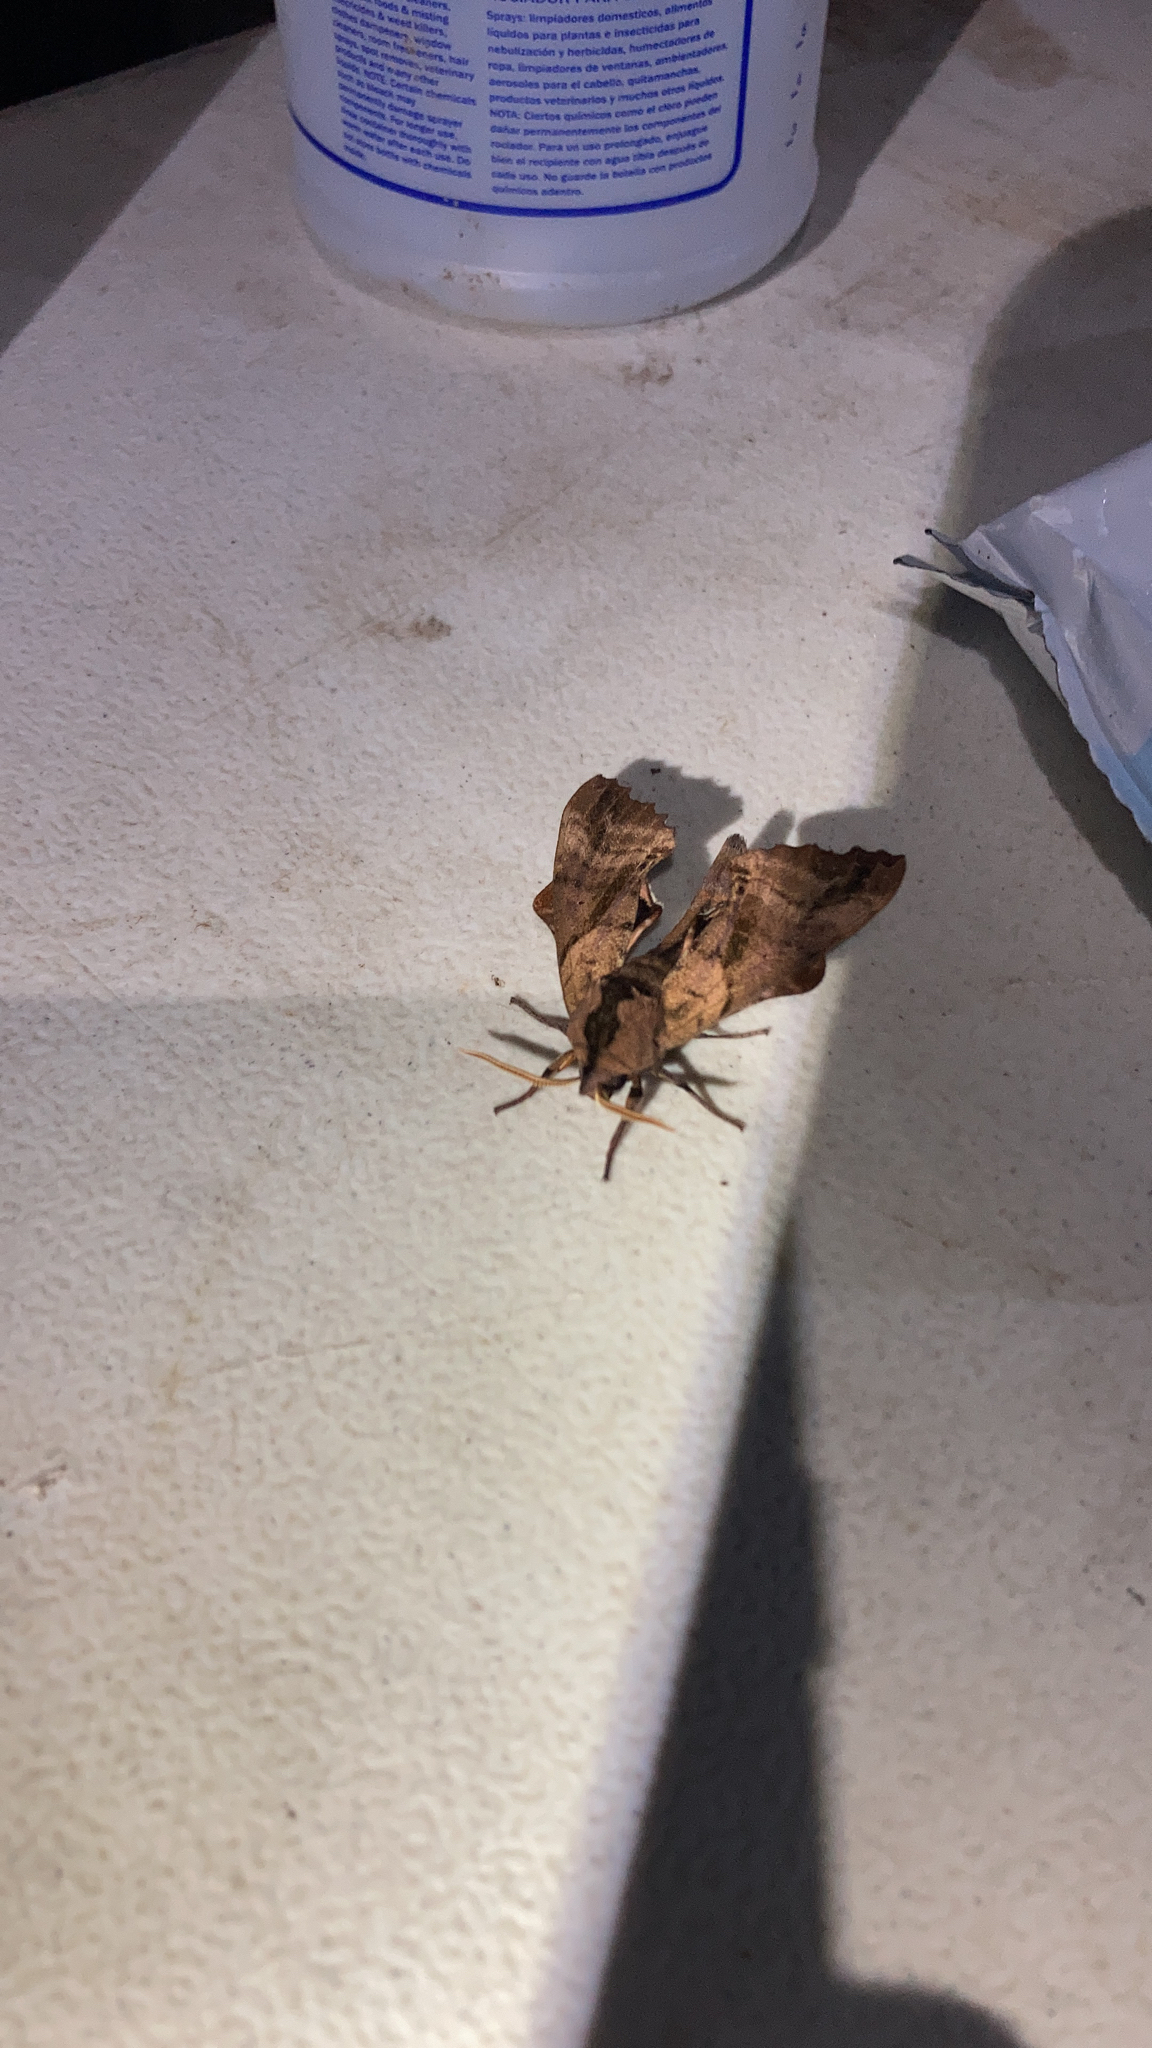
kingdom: Animalia
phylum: Arthropoda
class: Insecta
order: Lepidoptera
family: Sphingidae
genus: Paonias
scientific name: Paonias excaecata
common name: Blind-eyed sphinx
